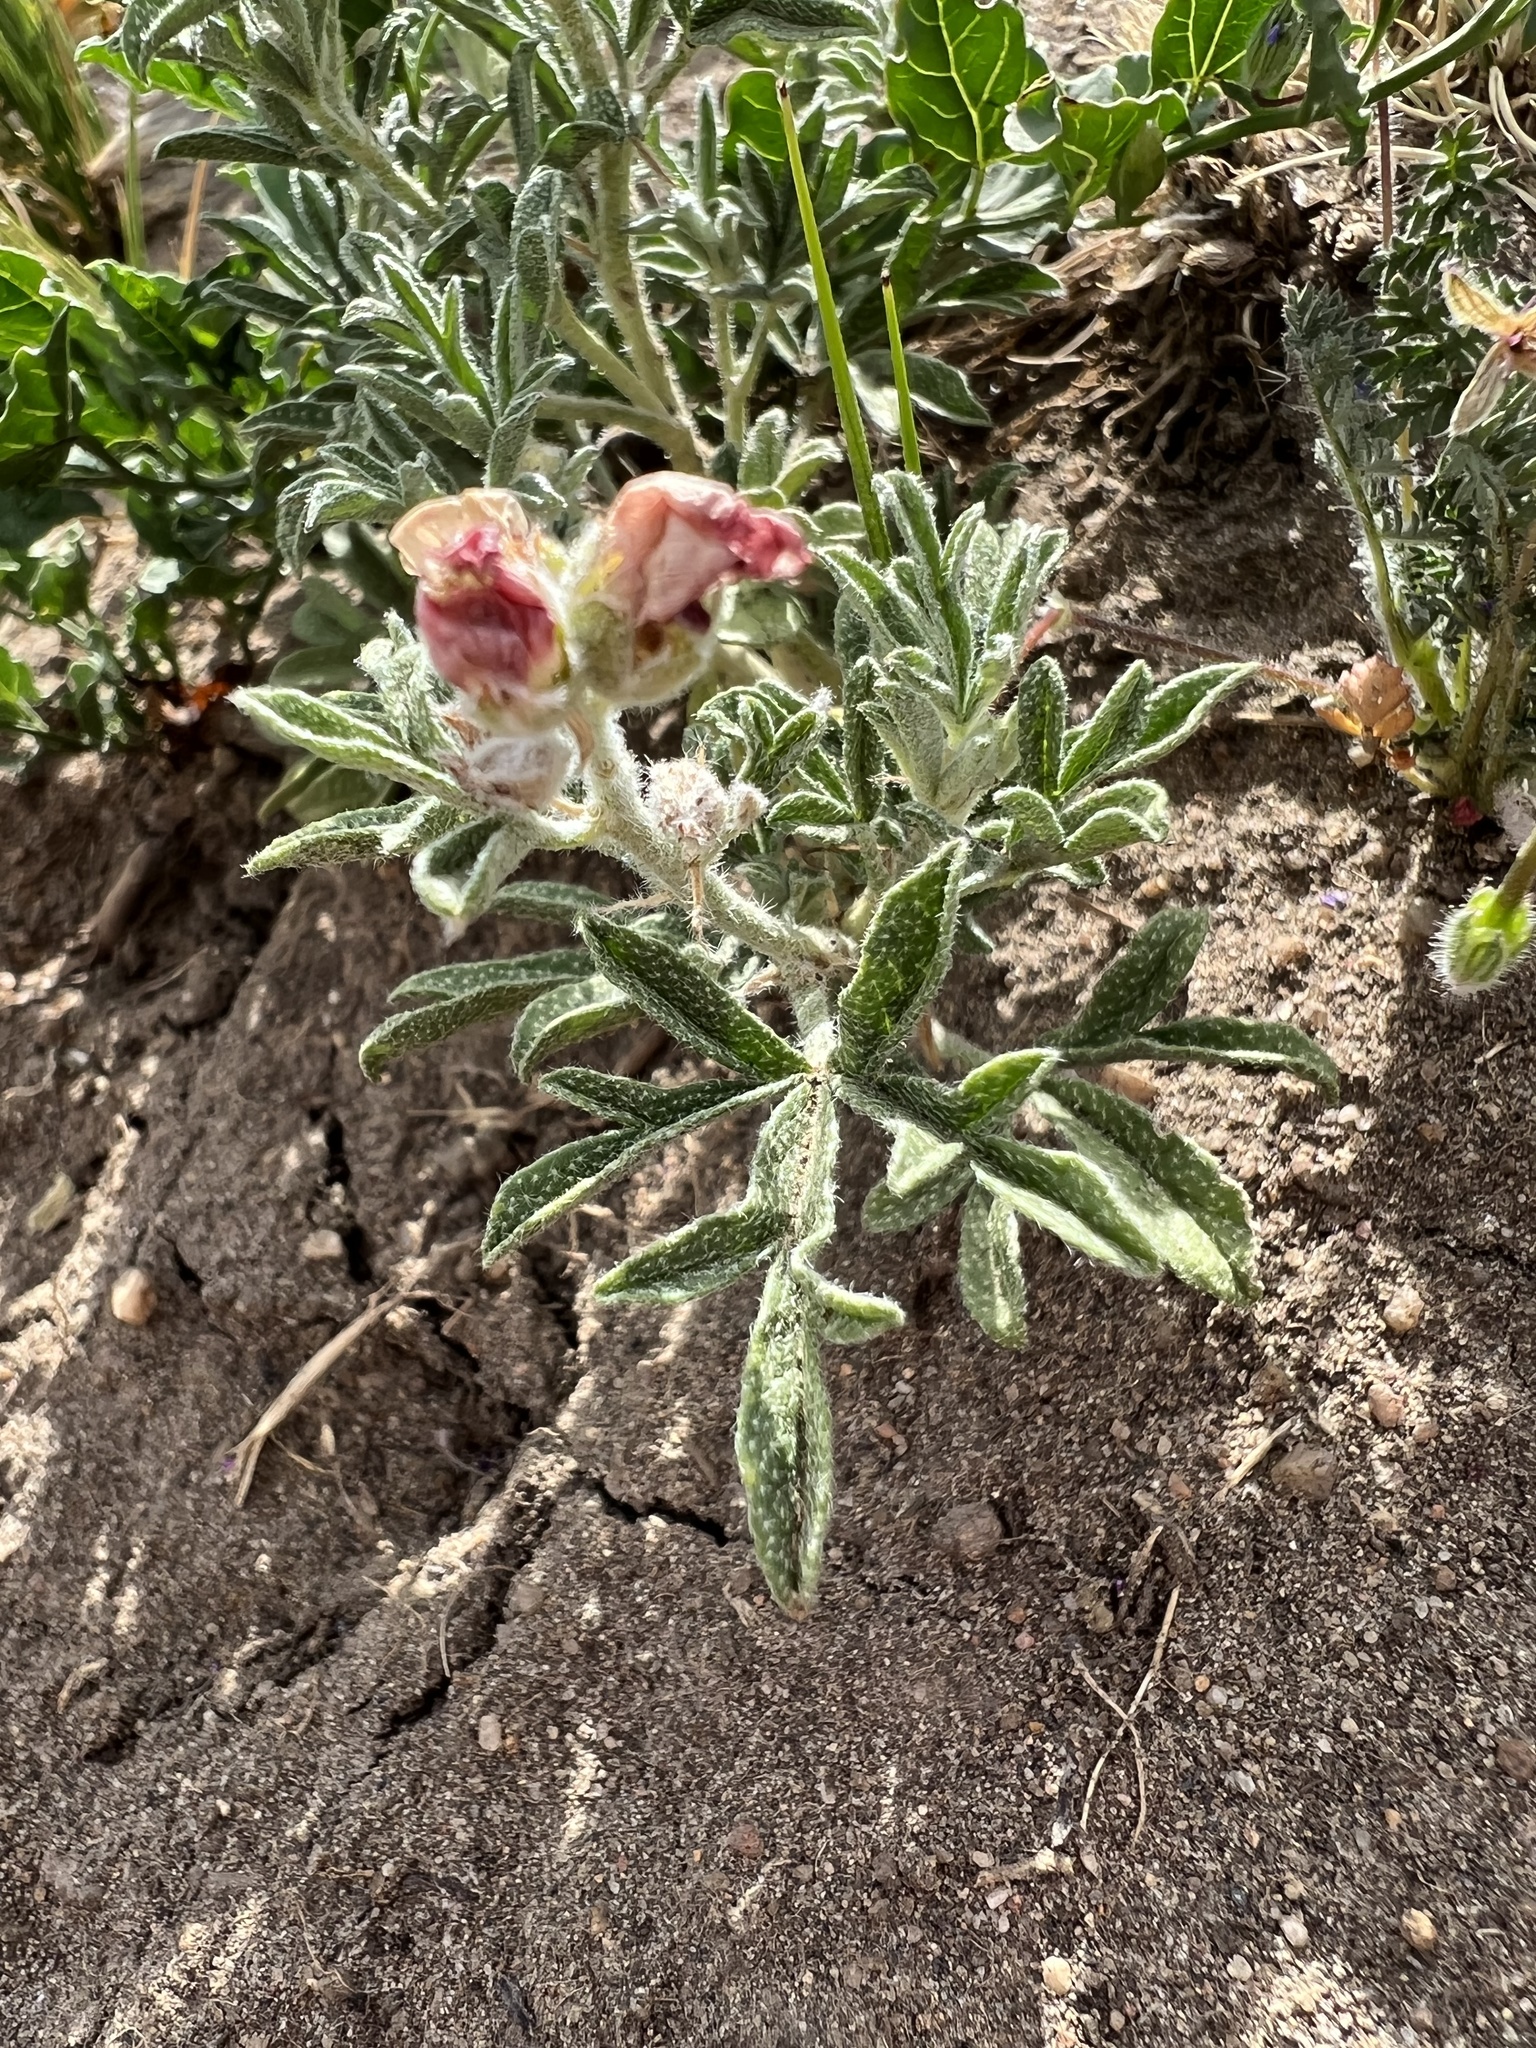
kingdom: Plantae
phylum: Tracheophyta
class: Magnoliopsida
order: Malvales
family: Malvaceae
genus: Sphaeralcea
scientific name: Sphaeralcea coccinea
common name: Moss-rose
